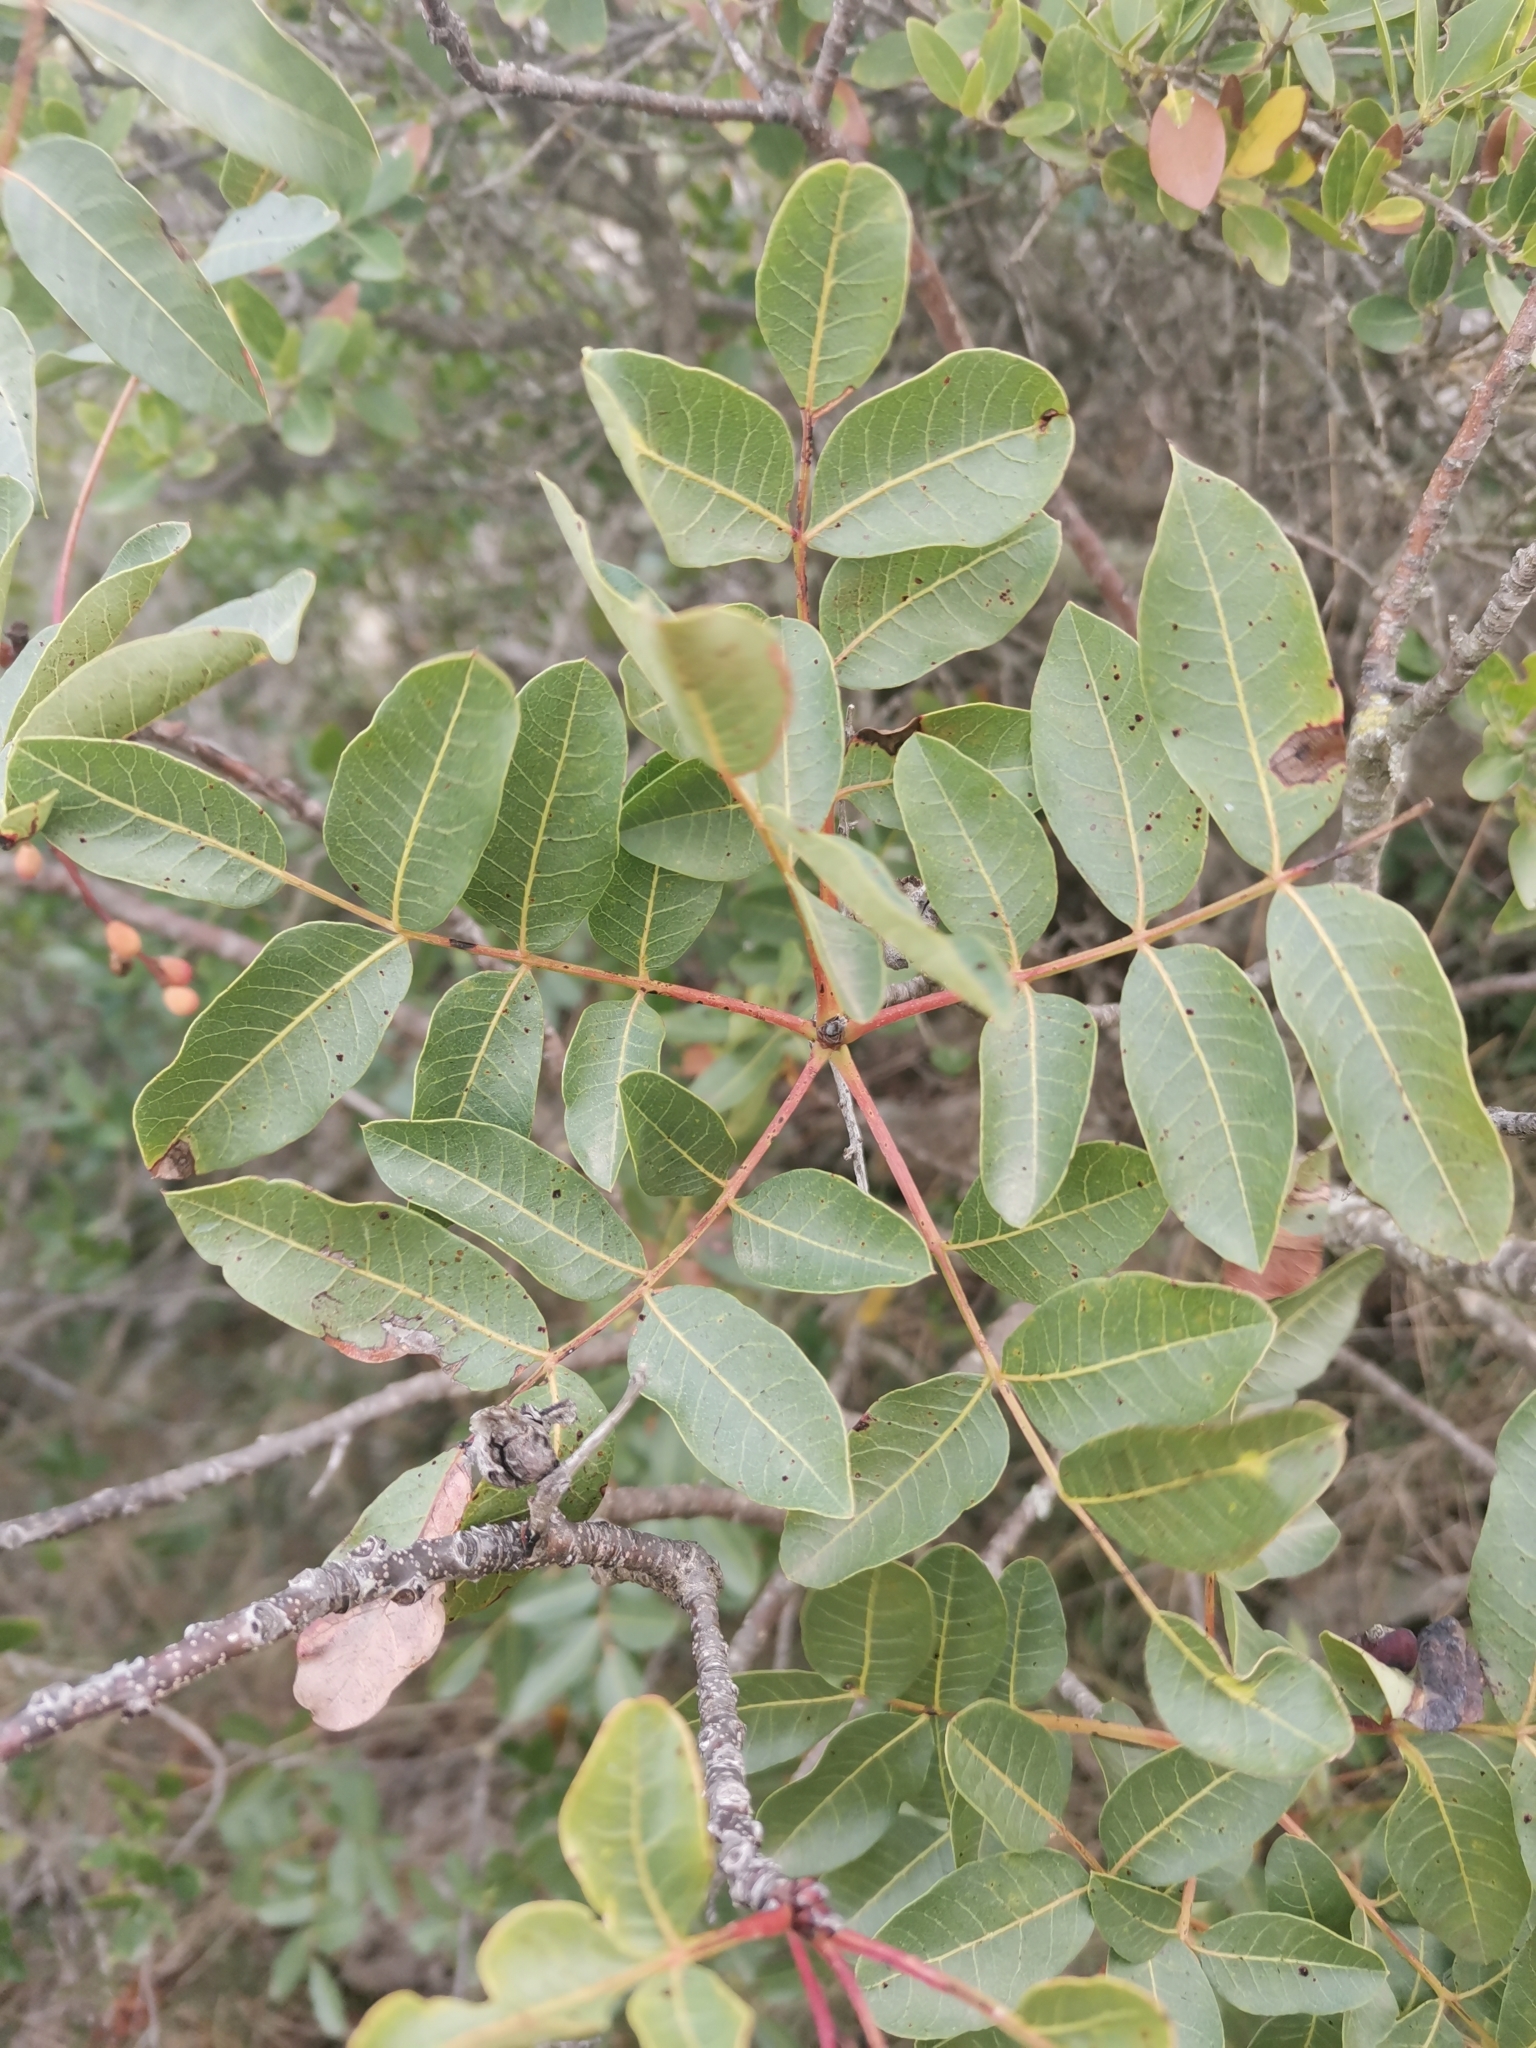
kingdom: Plantae
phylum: Tracheophyta
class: Magnoliopsida
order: Sapindales
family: Anacardiaceae
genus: Pistacia
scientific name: Pistacia terebinthus
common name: Terebinth
